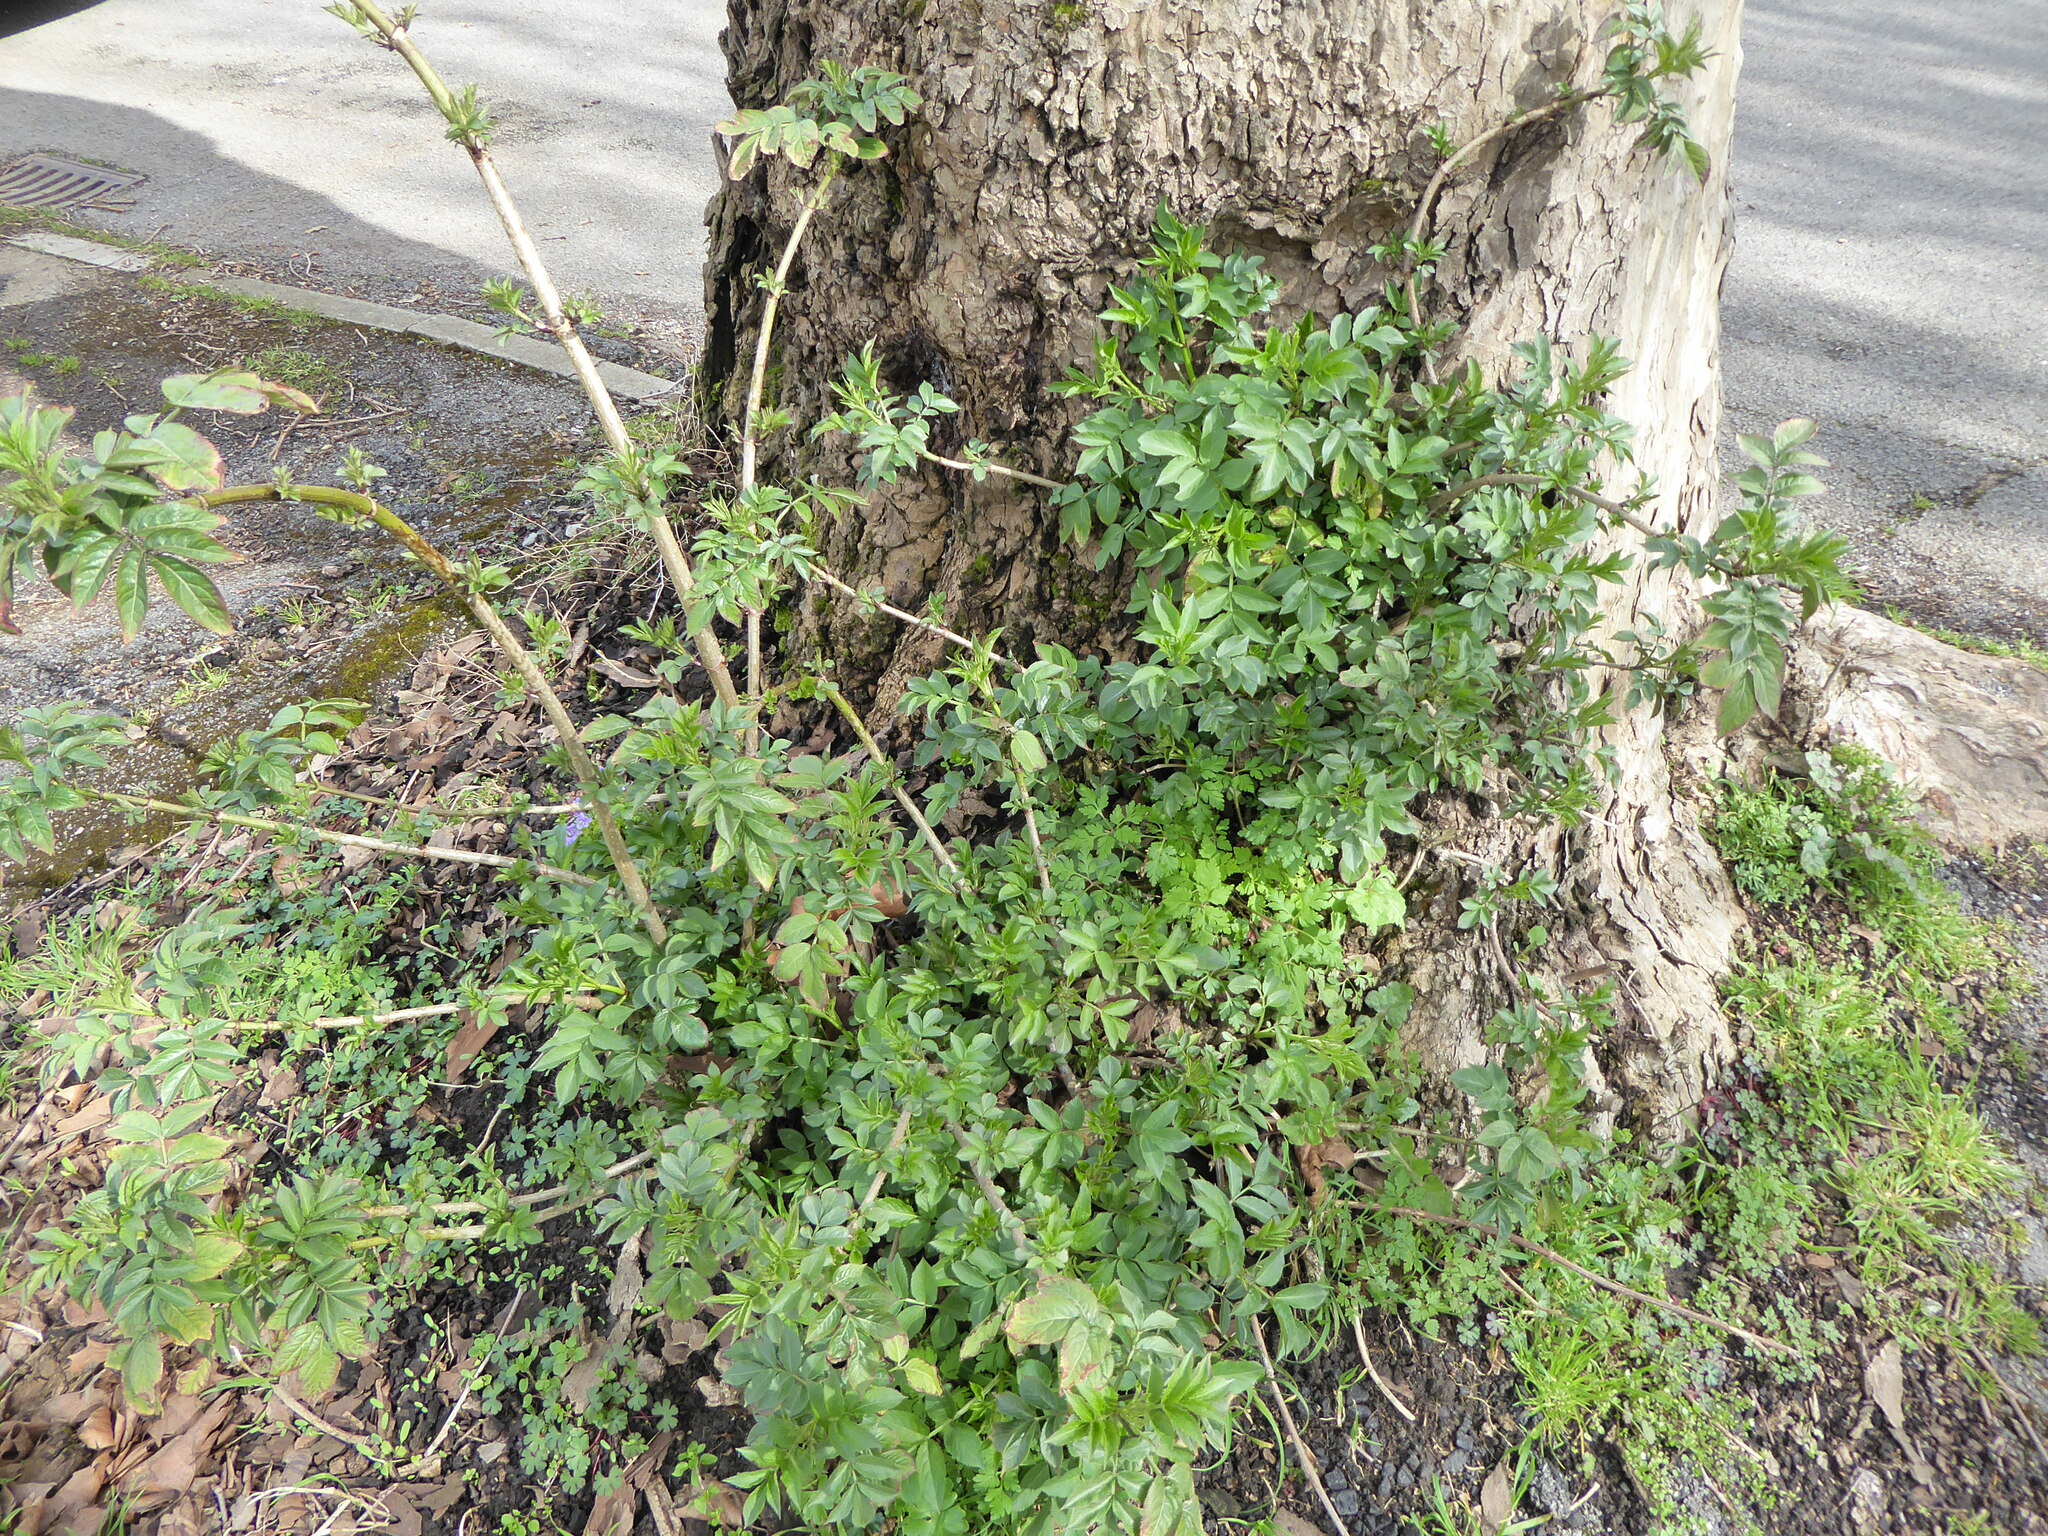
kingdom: Plantae
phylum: Tracheophyta
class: Magnoliopsida
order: Dipsacales
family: Viburnaceae
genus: Sambucus
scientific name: Sambucus nigra
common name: Elder
